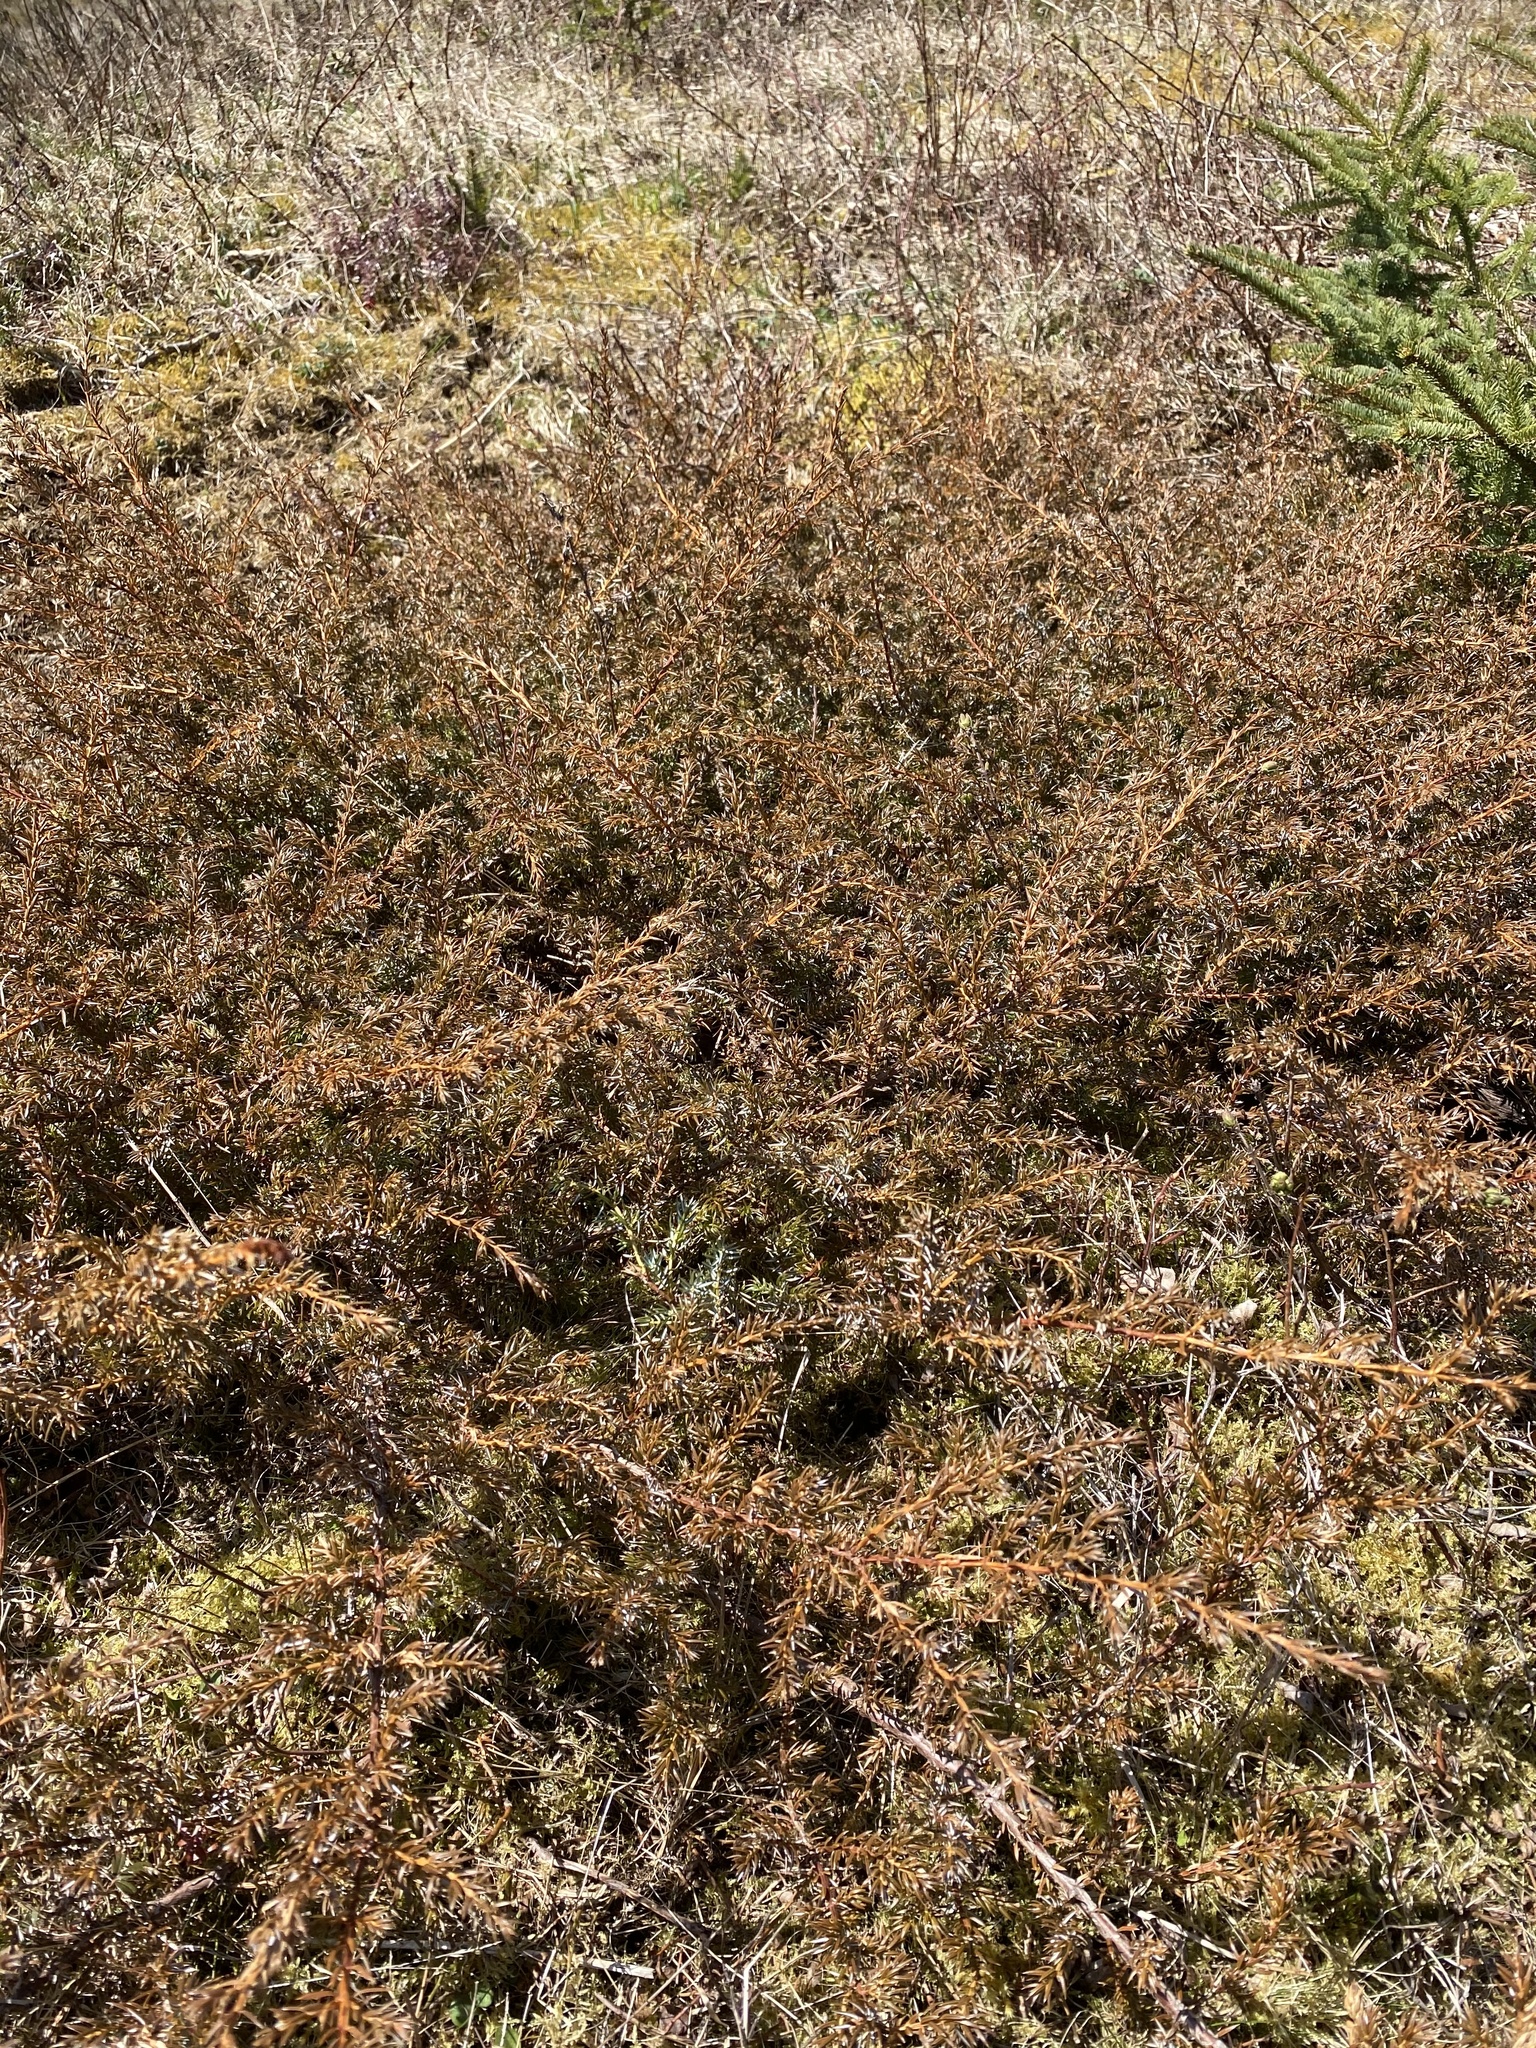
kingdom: Plantae
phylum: Tracheophyta
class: Pinopsida
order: Pinales
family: Cupressaceae
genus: Juniperus
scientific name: Juniperus communis
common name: Common juniper
